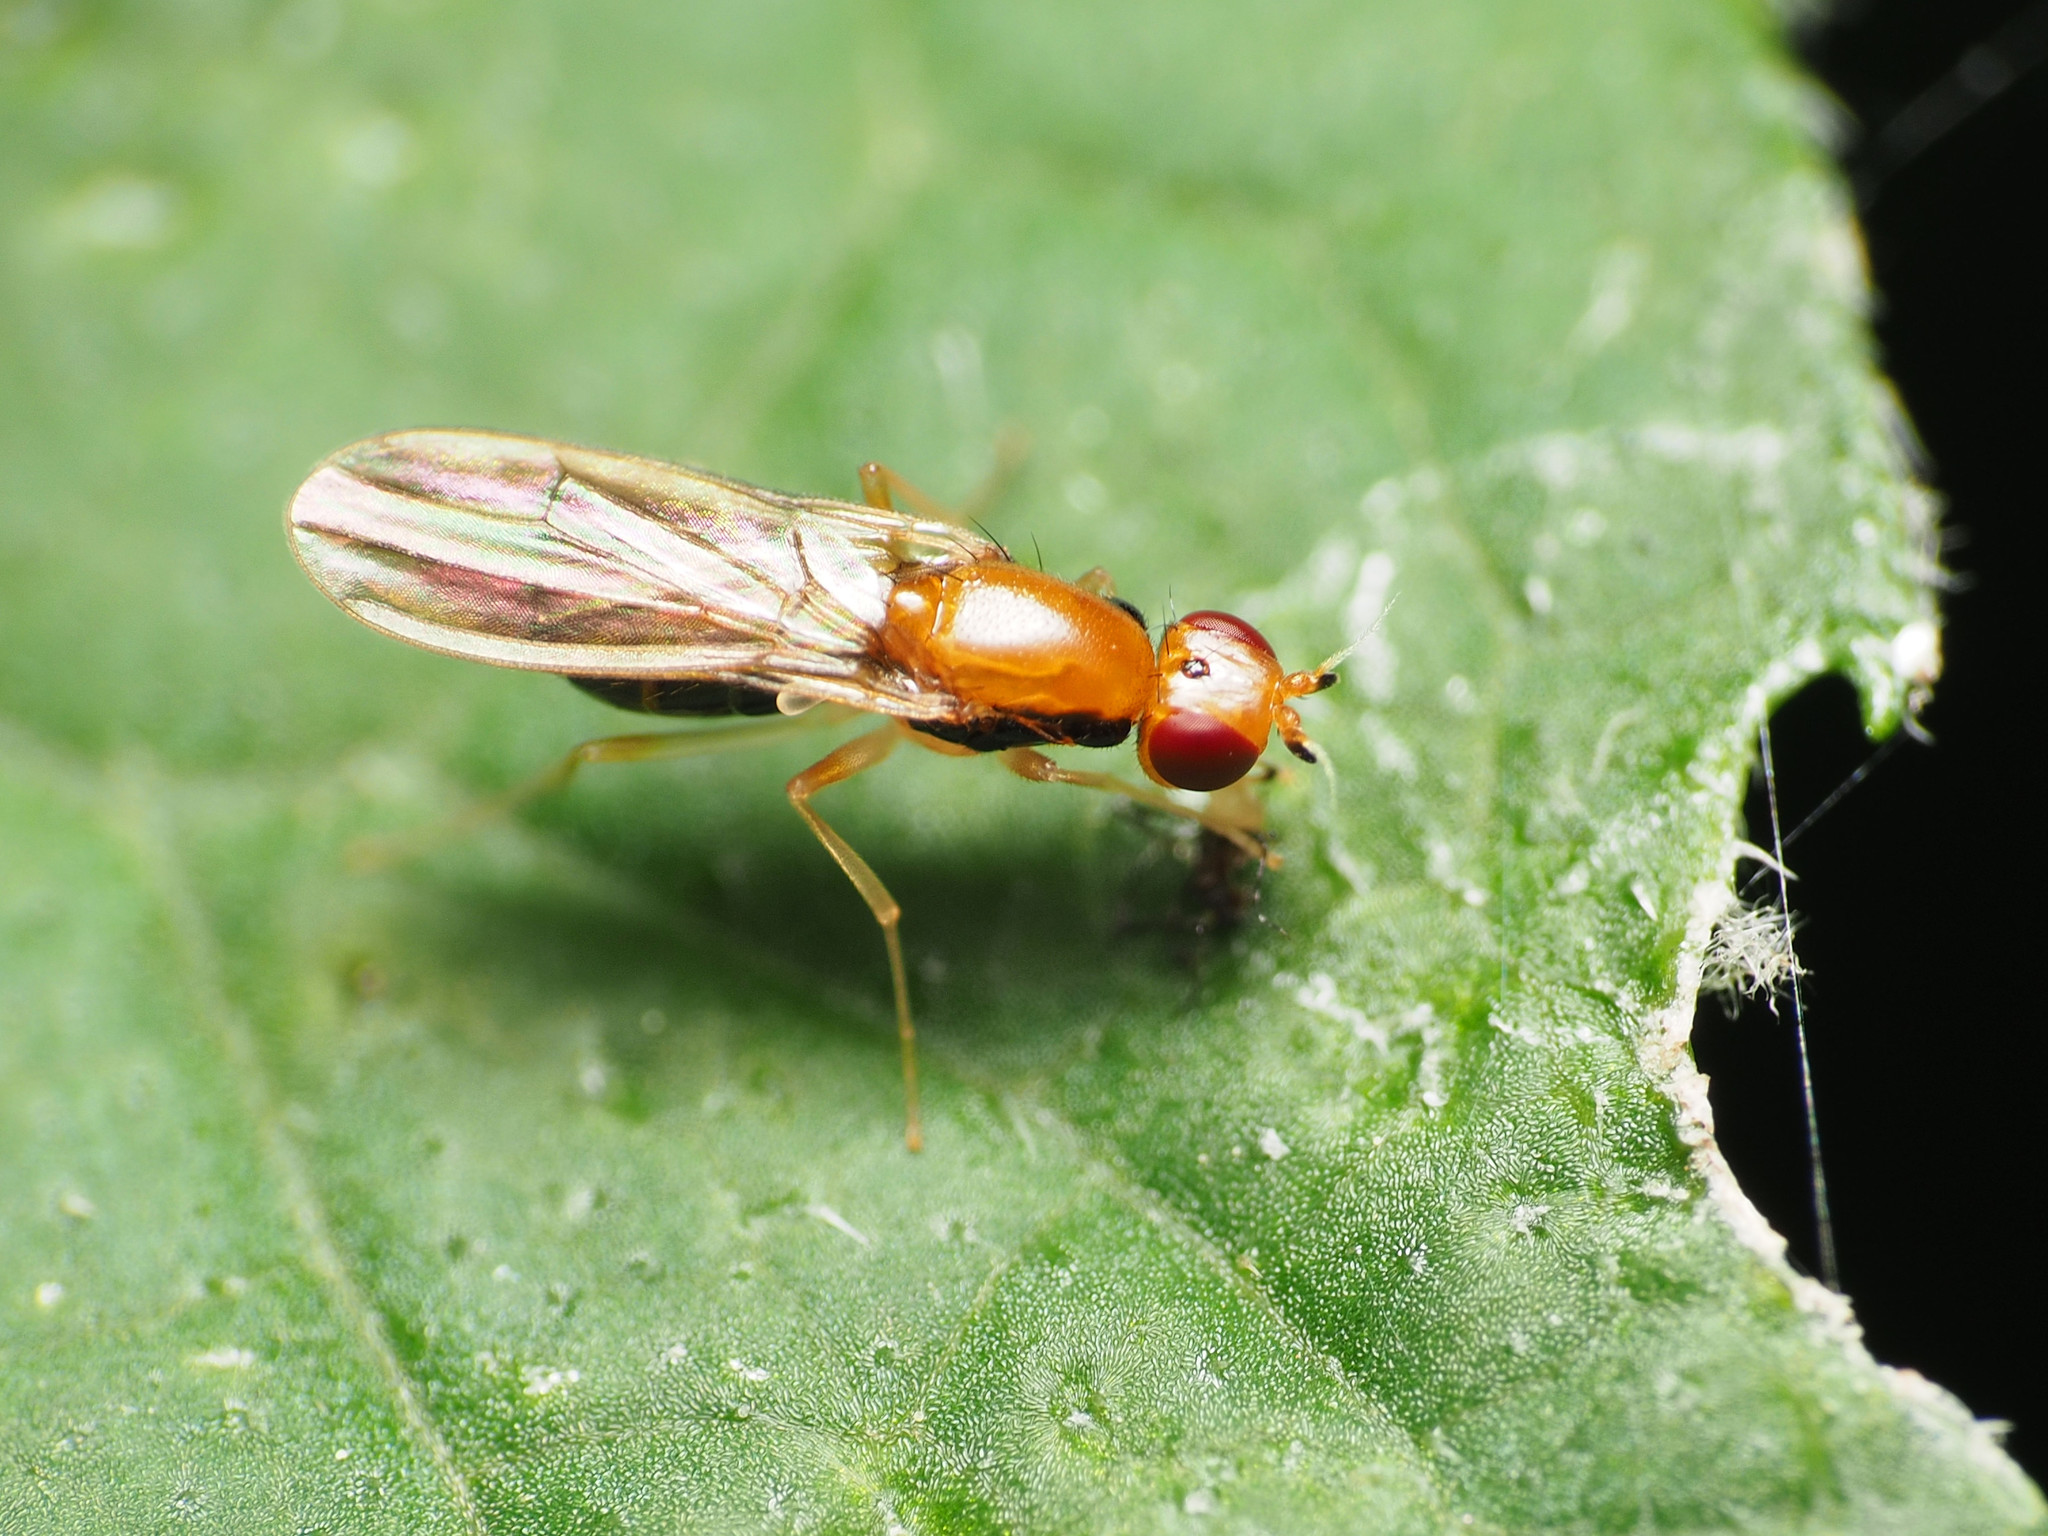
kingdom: Animalia
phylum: Arthropoda
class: Insecta
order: Diptera
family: Psilidae
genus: Psila
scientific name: Psila lateralis
